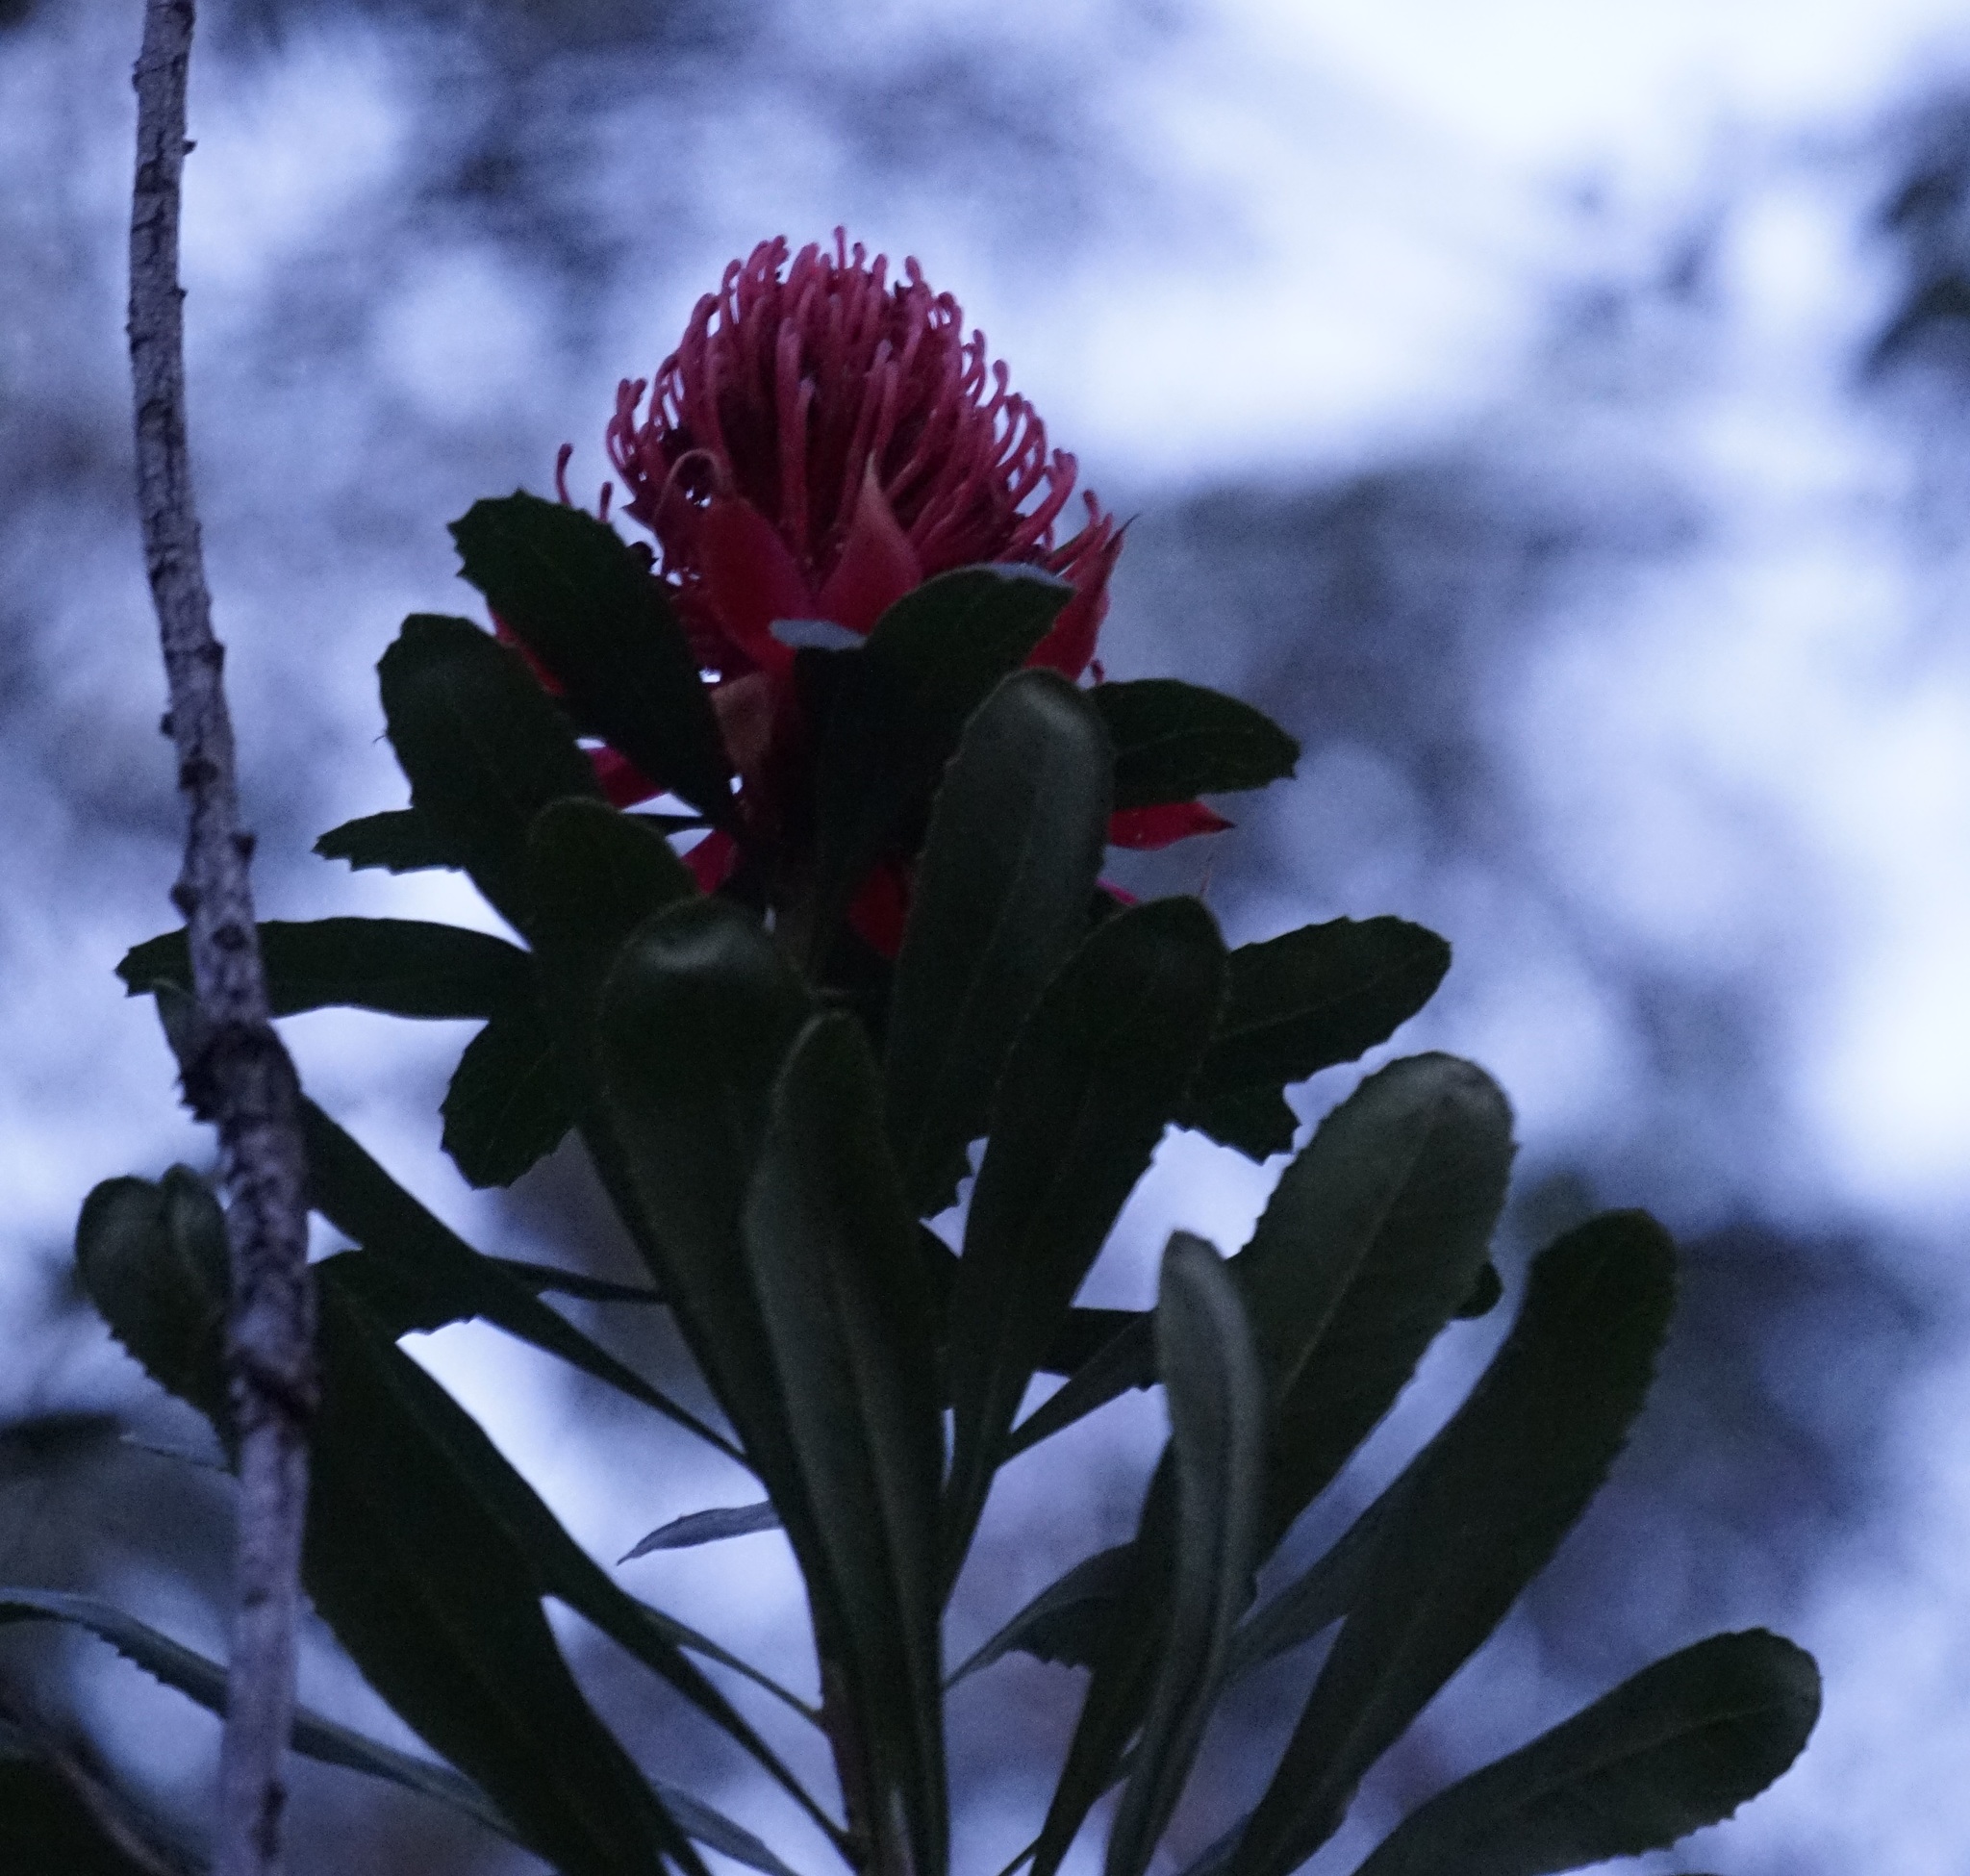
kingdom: Plantae
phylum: Tracheophyta
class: Magnoliopsida
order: Proteales
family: Proteaceae
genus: Telopea
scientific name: Telopea speciosissima
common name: New south wales waratah
